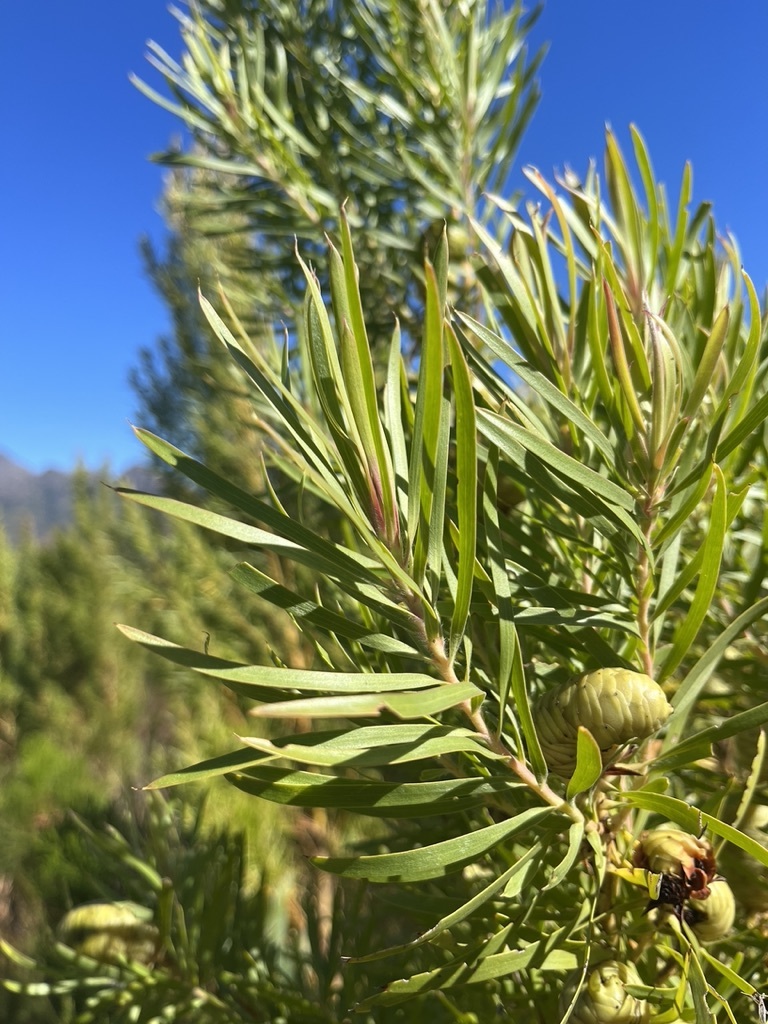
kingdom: Plantae
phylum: Tracheophyta
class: Magnoliopsida
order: Proteales
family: Proteaceae
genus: Leucadendron
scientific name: Leucadendron salicifolium
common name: Common stream conebush
